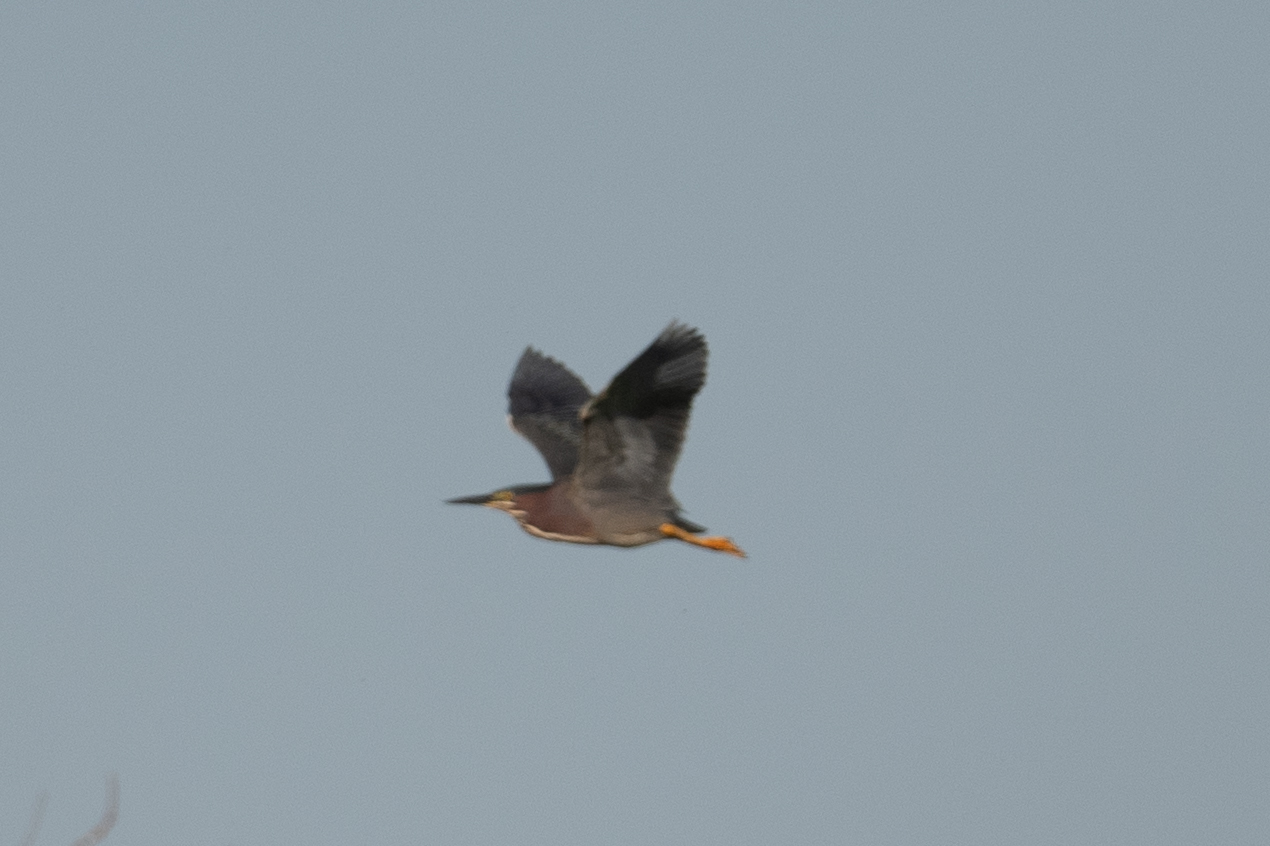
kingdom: Animalia
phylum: Chordata
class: Aves
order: Pelecaniformes
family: Ardeidae
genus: Butorides
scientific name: Butorides virescens
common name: Green heron
